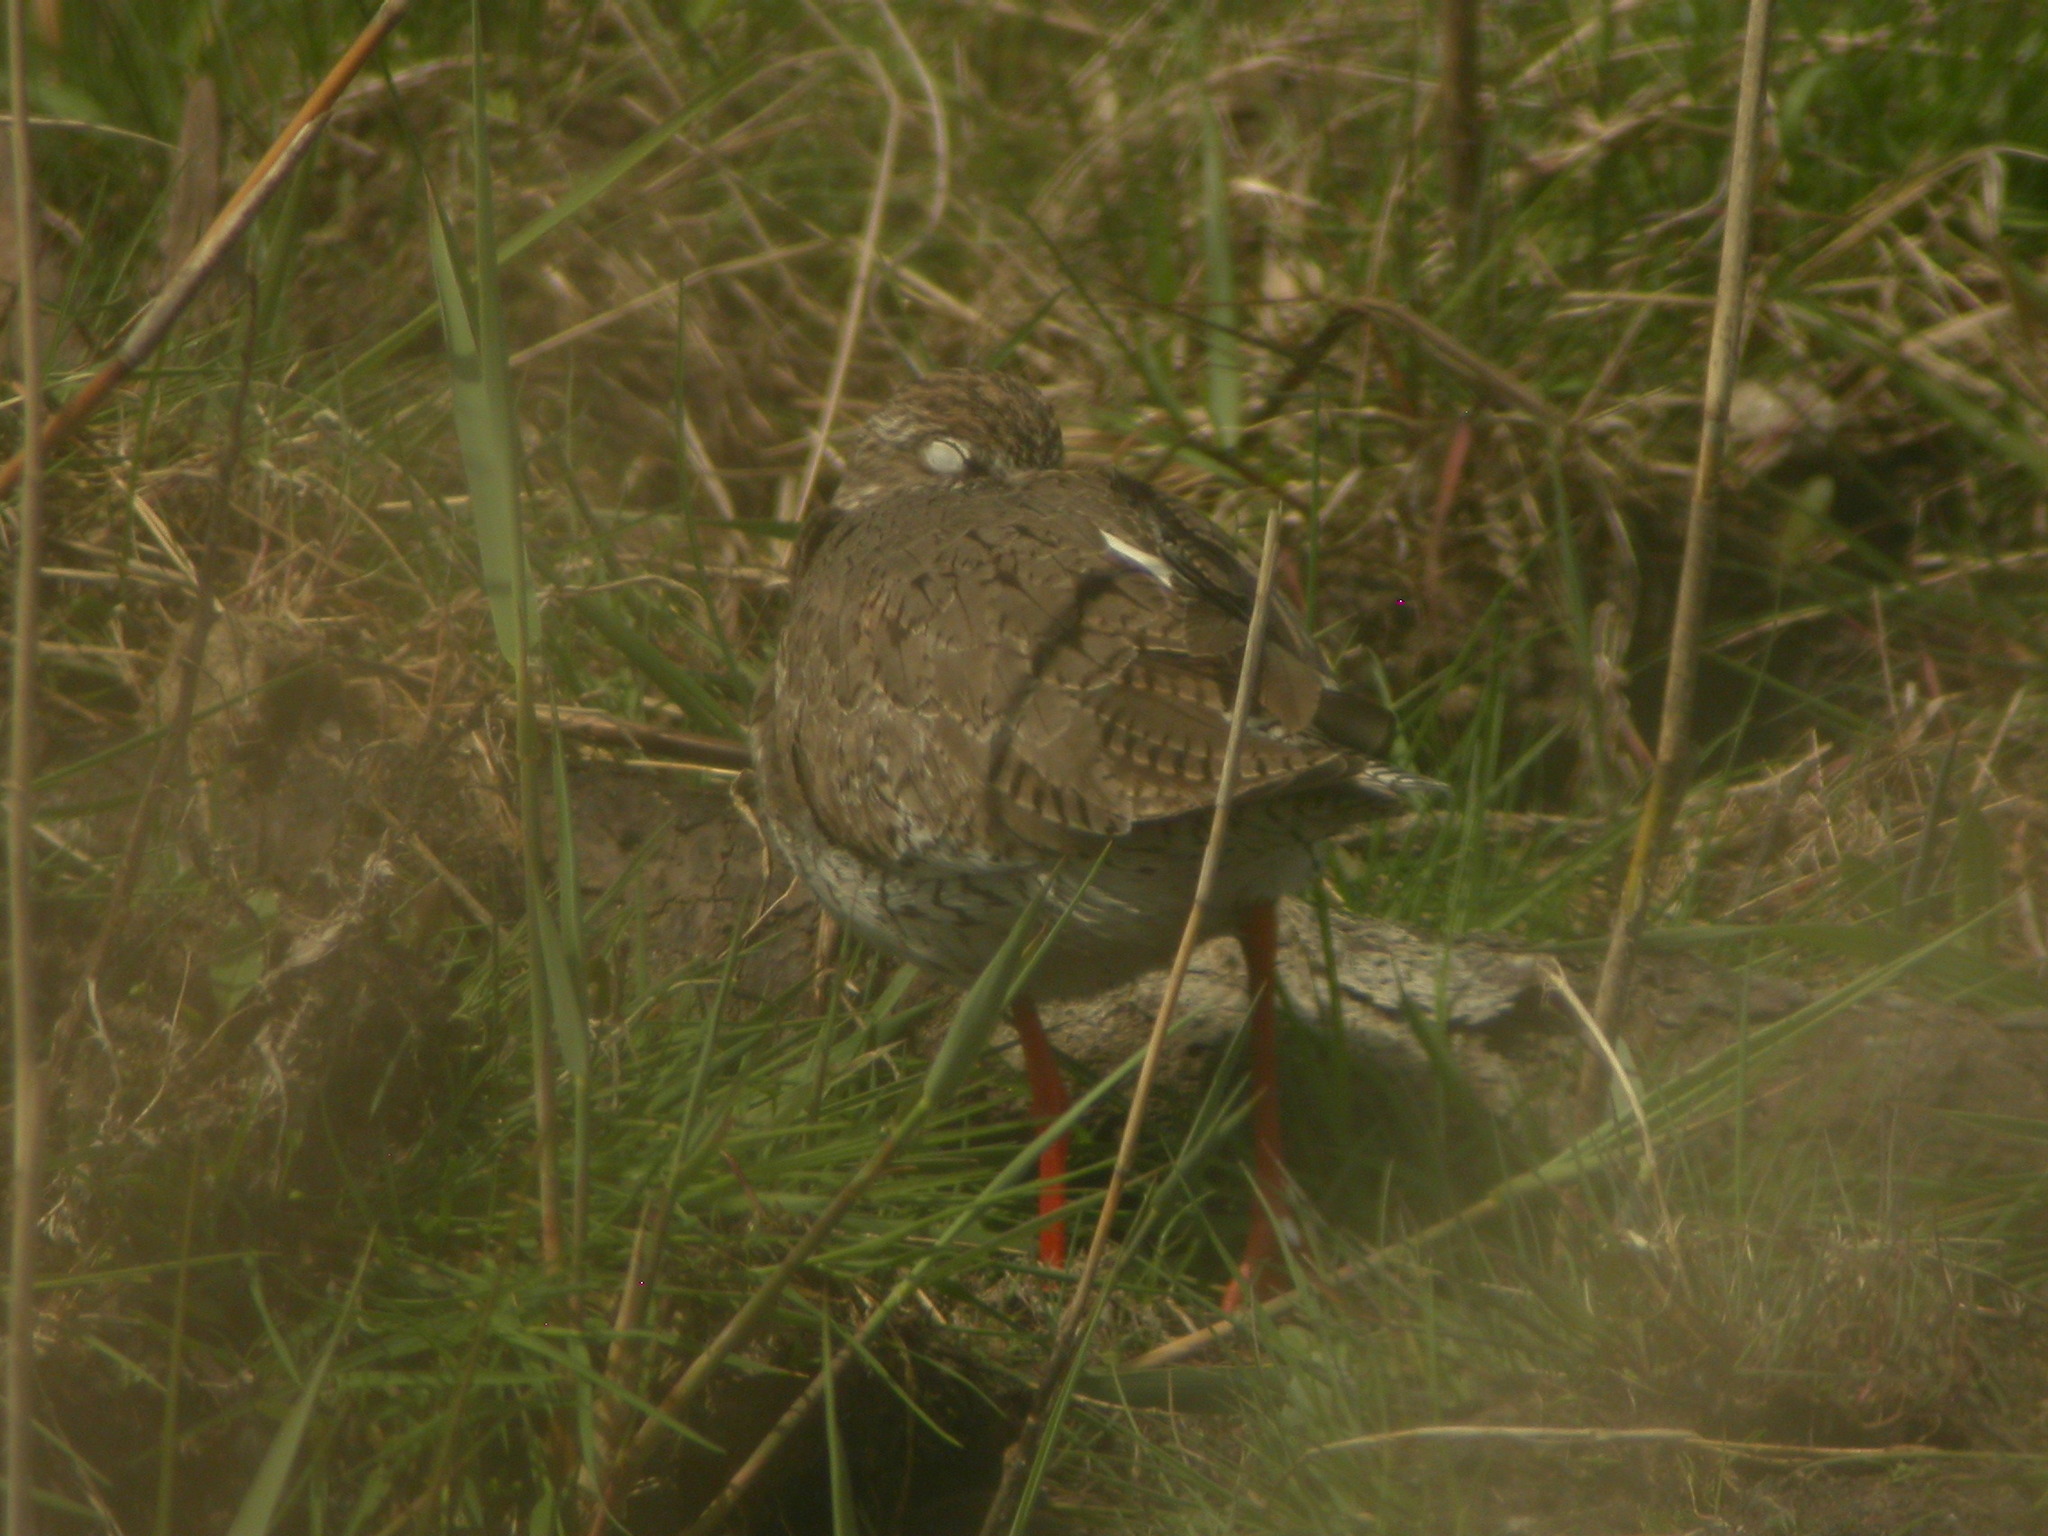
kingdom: Animalia
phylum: Chordata
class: Aves
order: Charadriiformes
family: Scolopacidae
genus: Tringa
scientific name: Tringa totanus
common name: Common redshank
